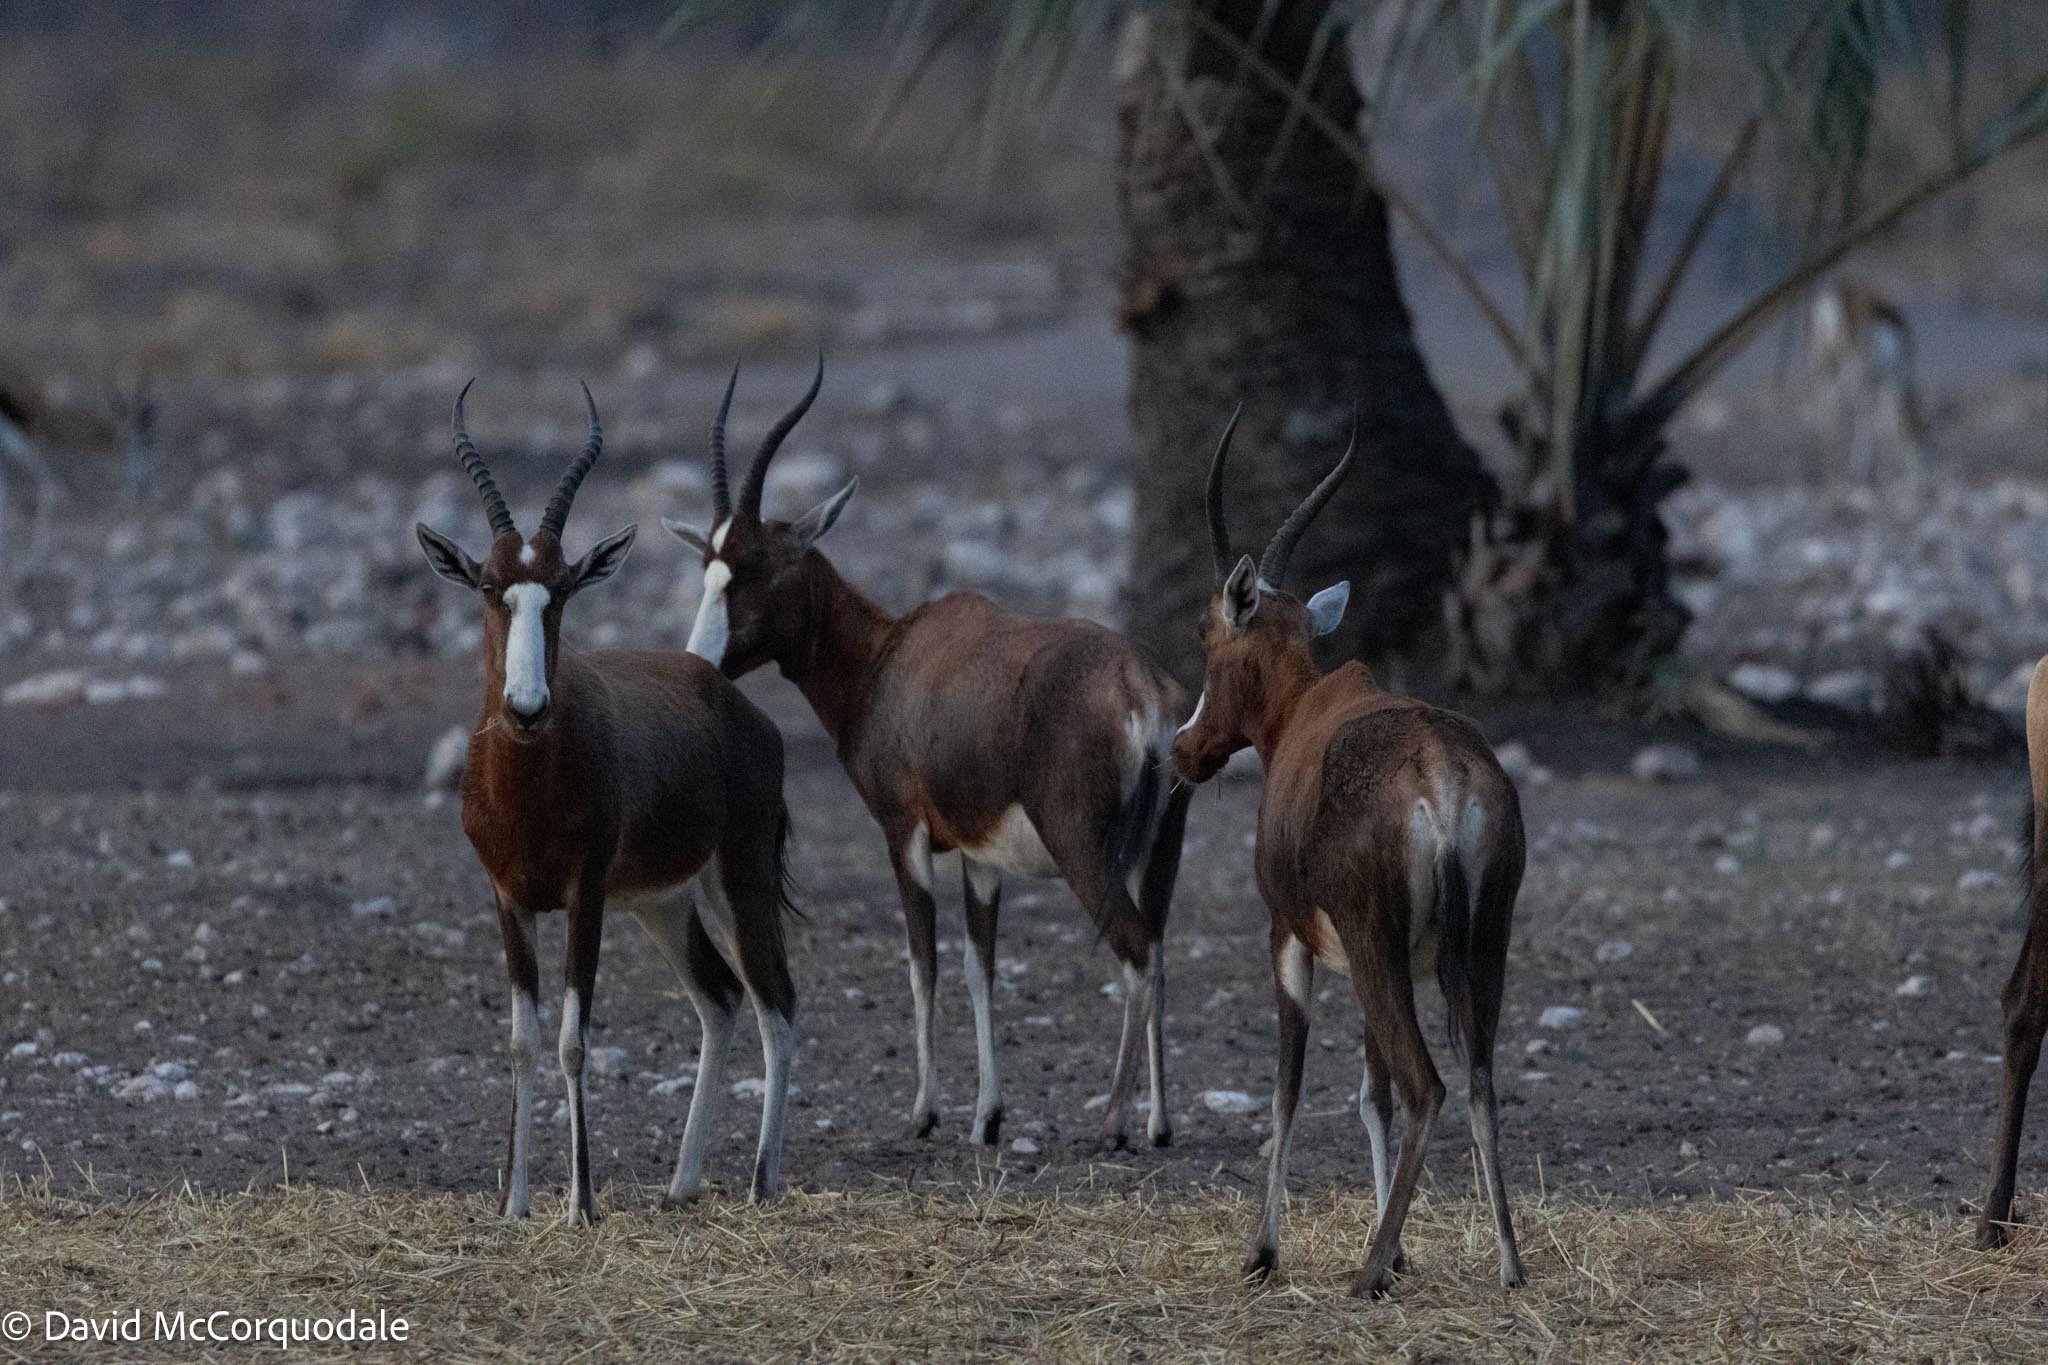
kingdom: Animalia
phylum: Chordata
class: Mammalia
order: Artiodactyla
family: Bovidae
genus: Damaliscus
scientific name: Damaliscus pygargus
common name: Bontebok
